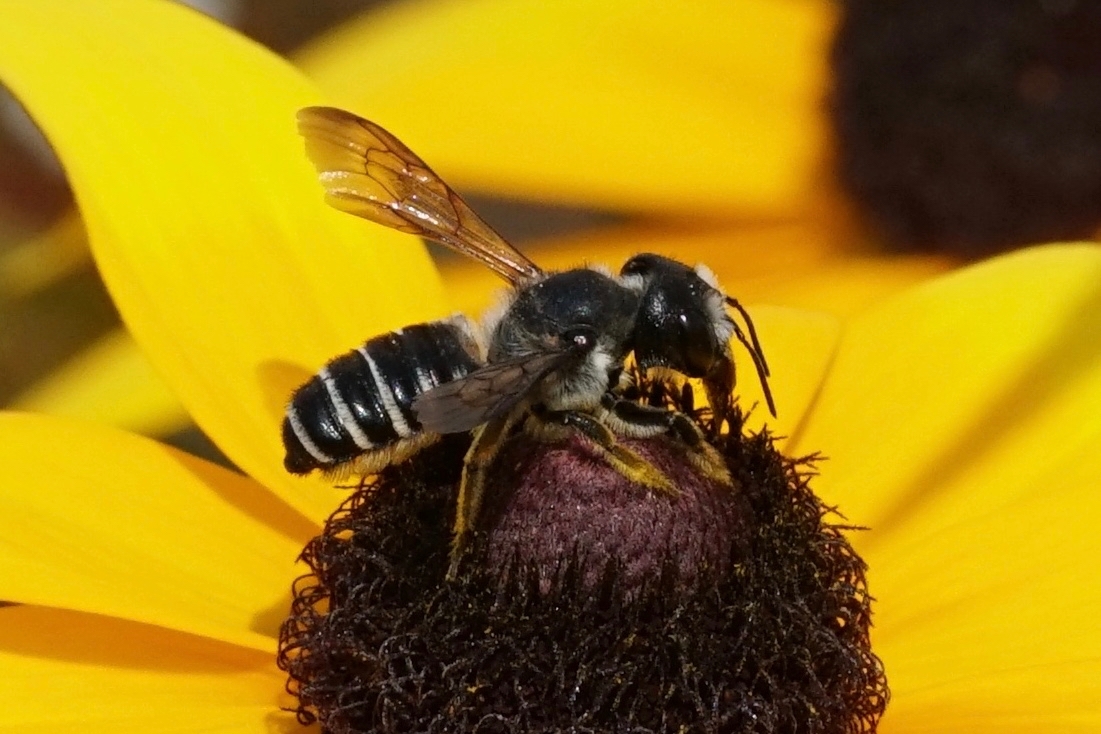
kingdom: Animalia
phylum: Arthropoda
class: Insecta
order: Hymenoptera
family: Megachilidae
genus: Megachile
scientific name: Megachile pugnata
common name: Pugnacious leafcutter bee
